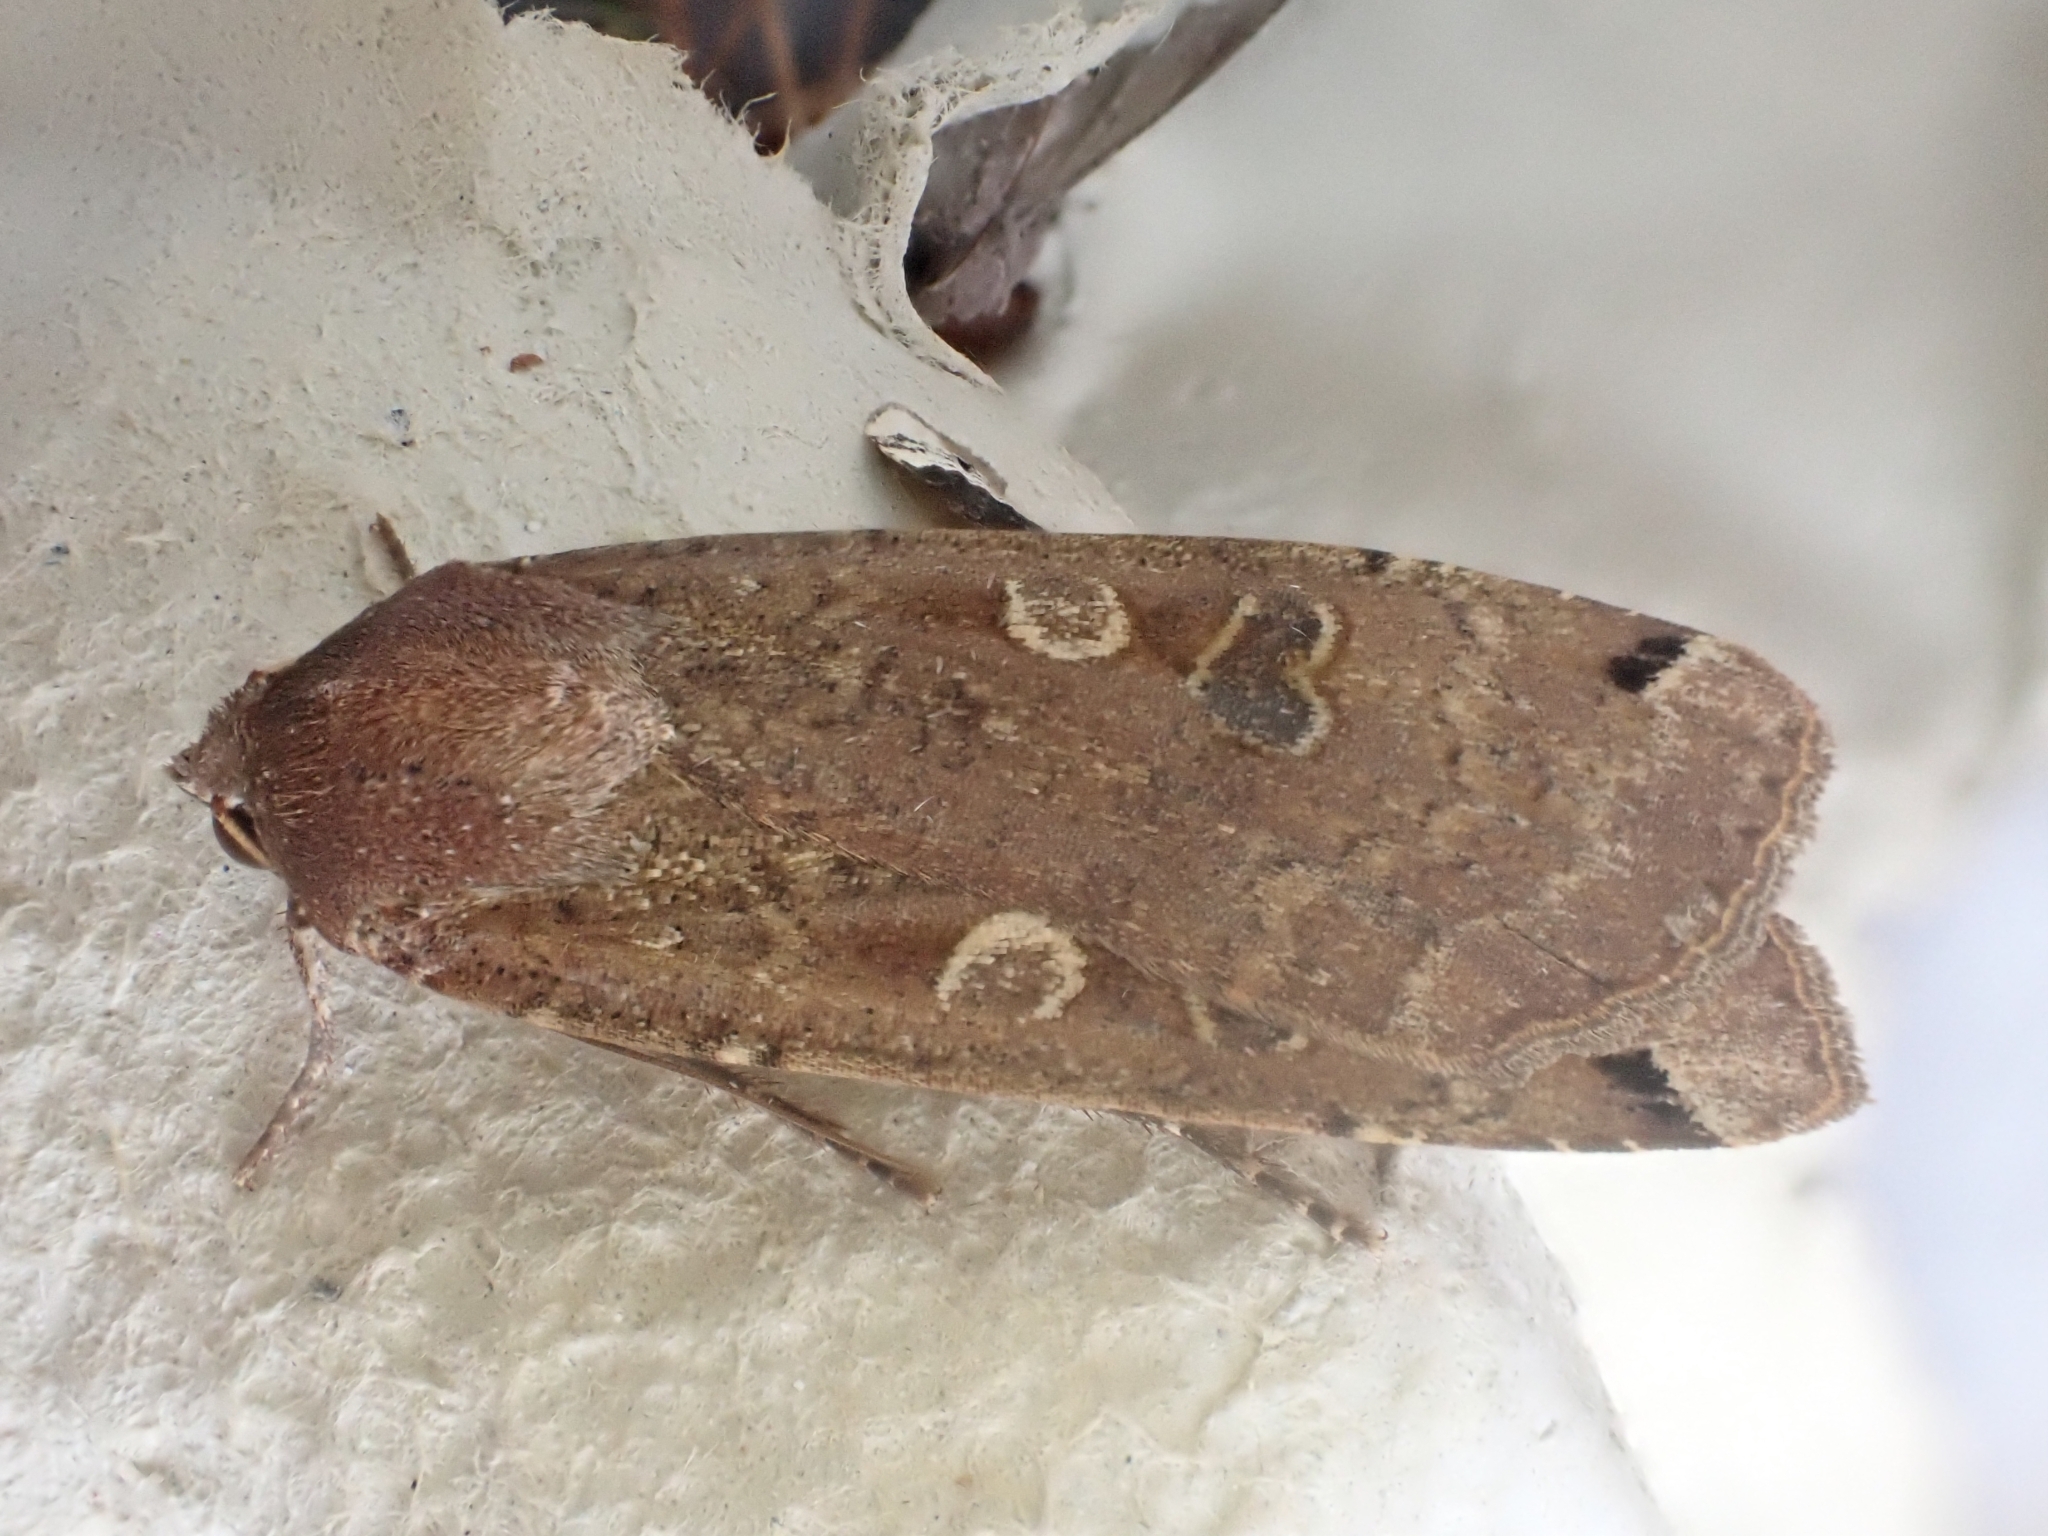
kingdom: Animalia
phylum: Arthropoda
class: Insecta
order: Lepidoptera
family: Noctuidae
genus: Noctua
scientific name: Noctua pronuba
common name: Large yellow underwing
